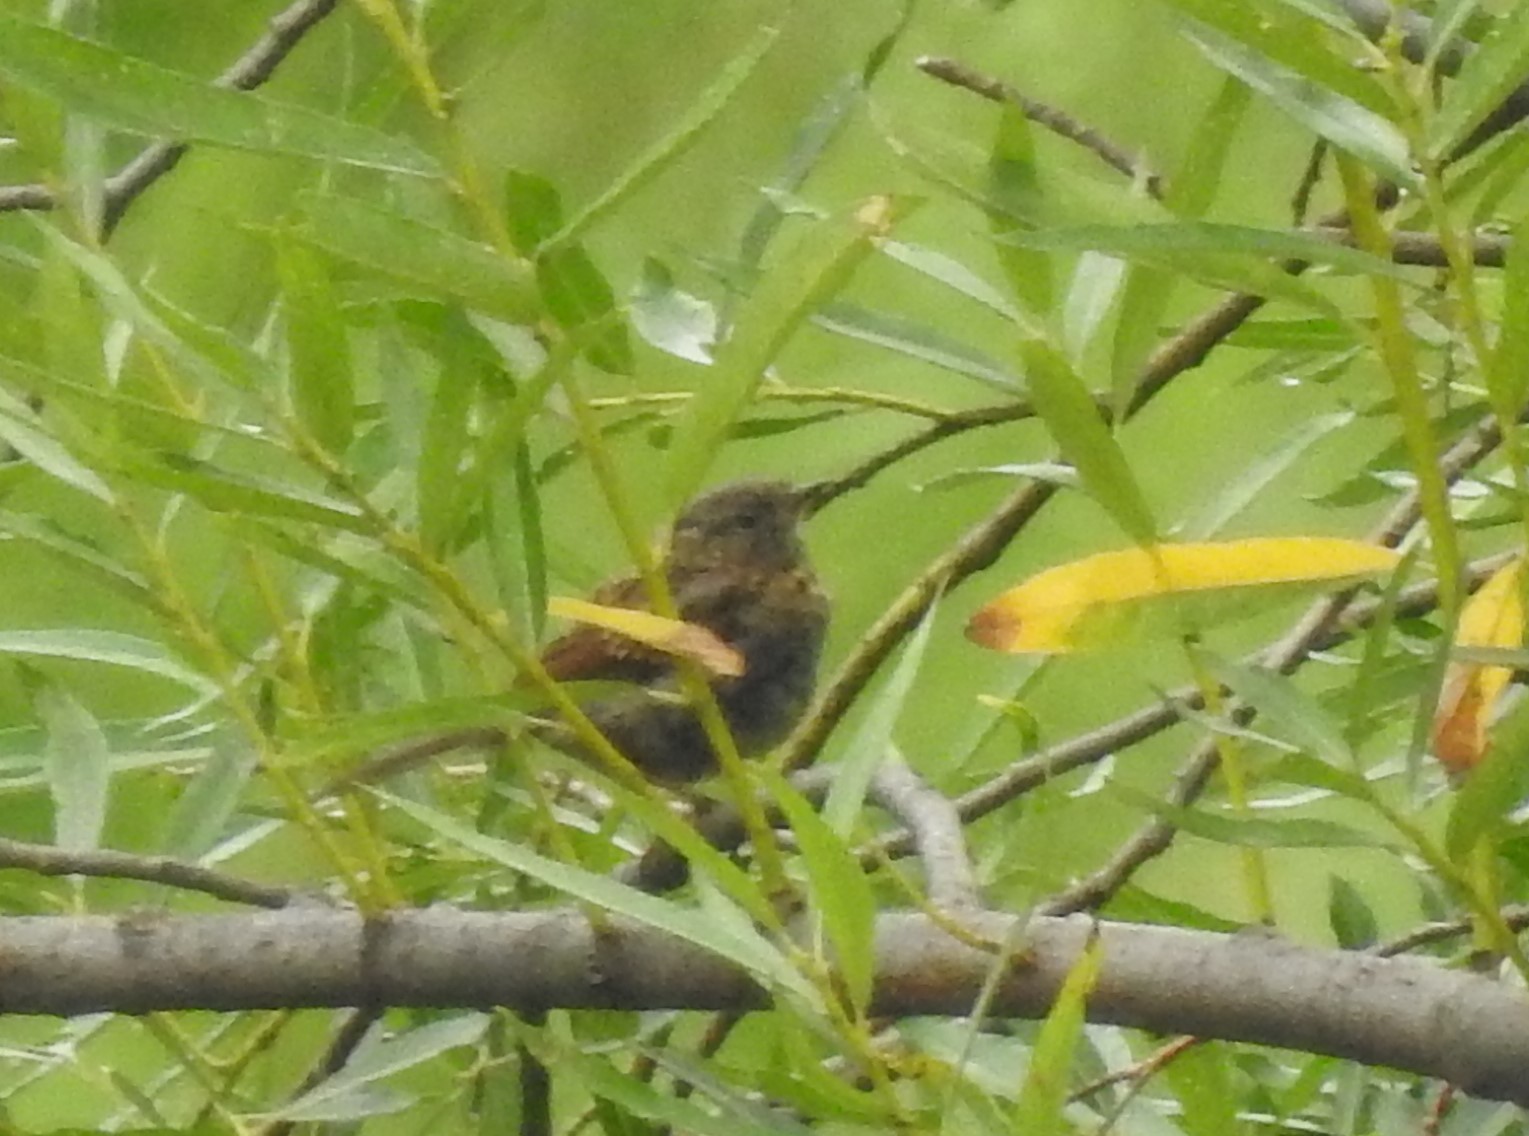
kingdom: Animalia
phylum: Chordata
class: Aves
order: Passeriformes
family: Prunellidae
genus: Prunella
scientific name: Prunella modularis
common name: Dunnock
